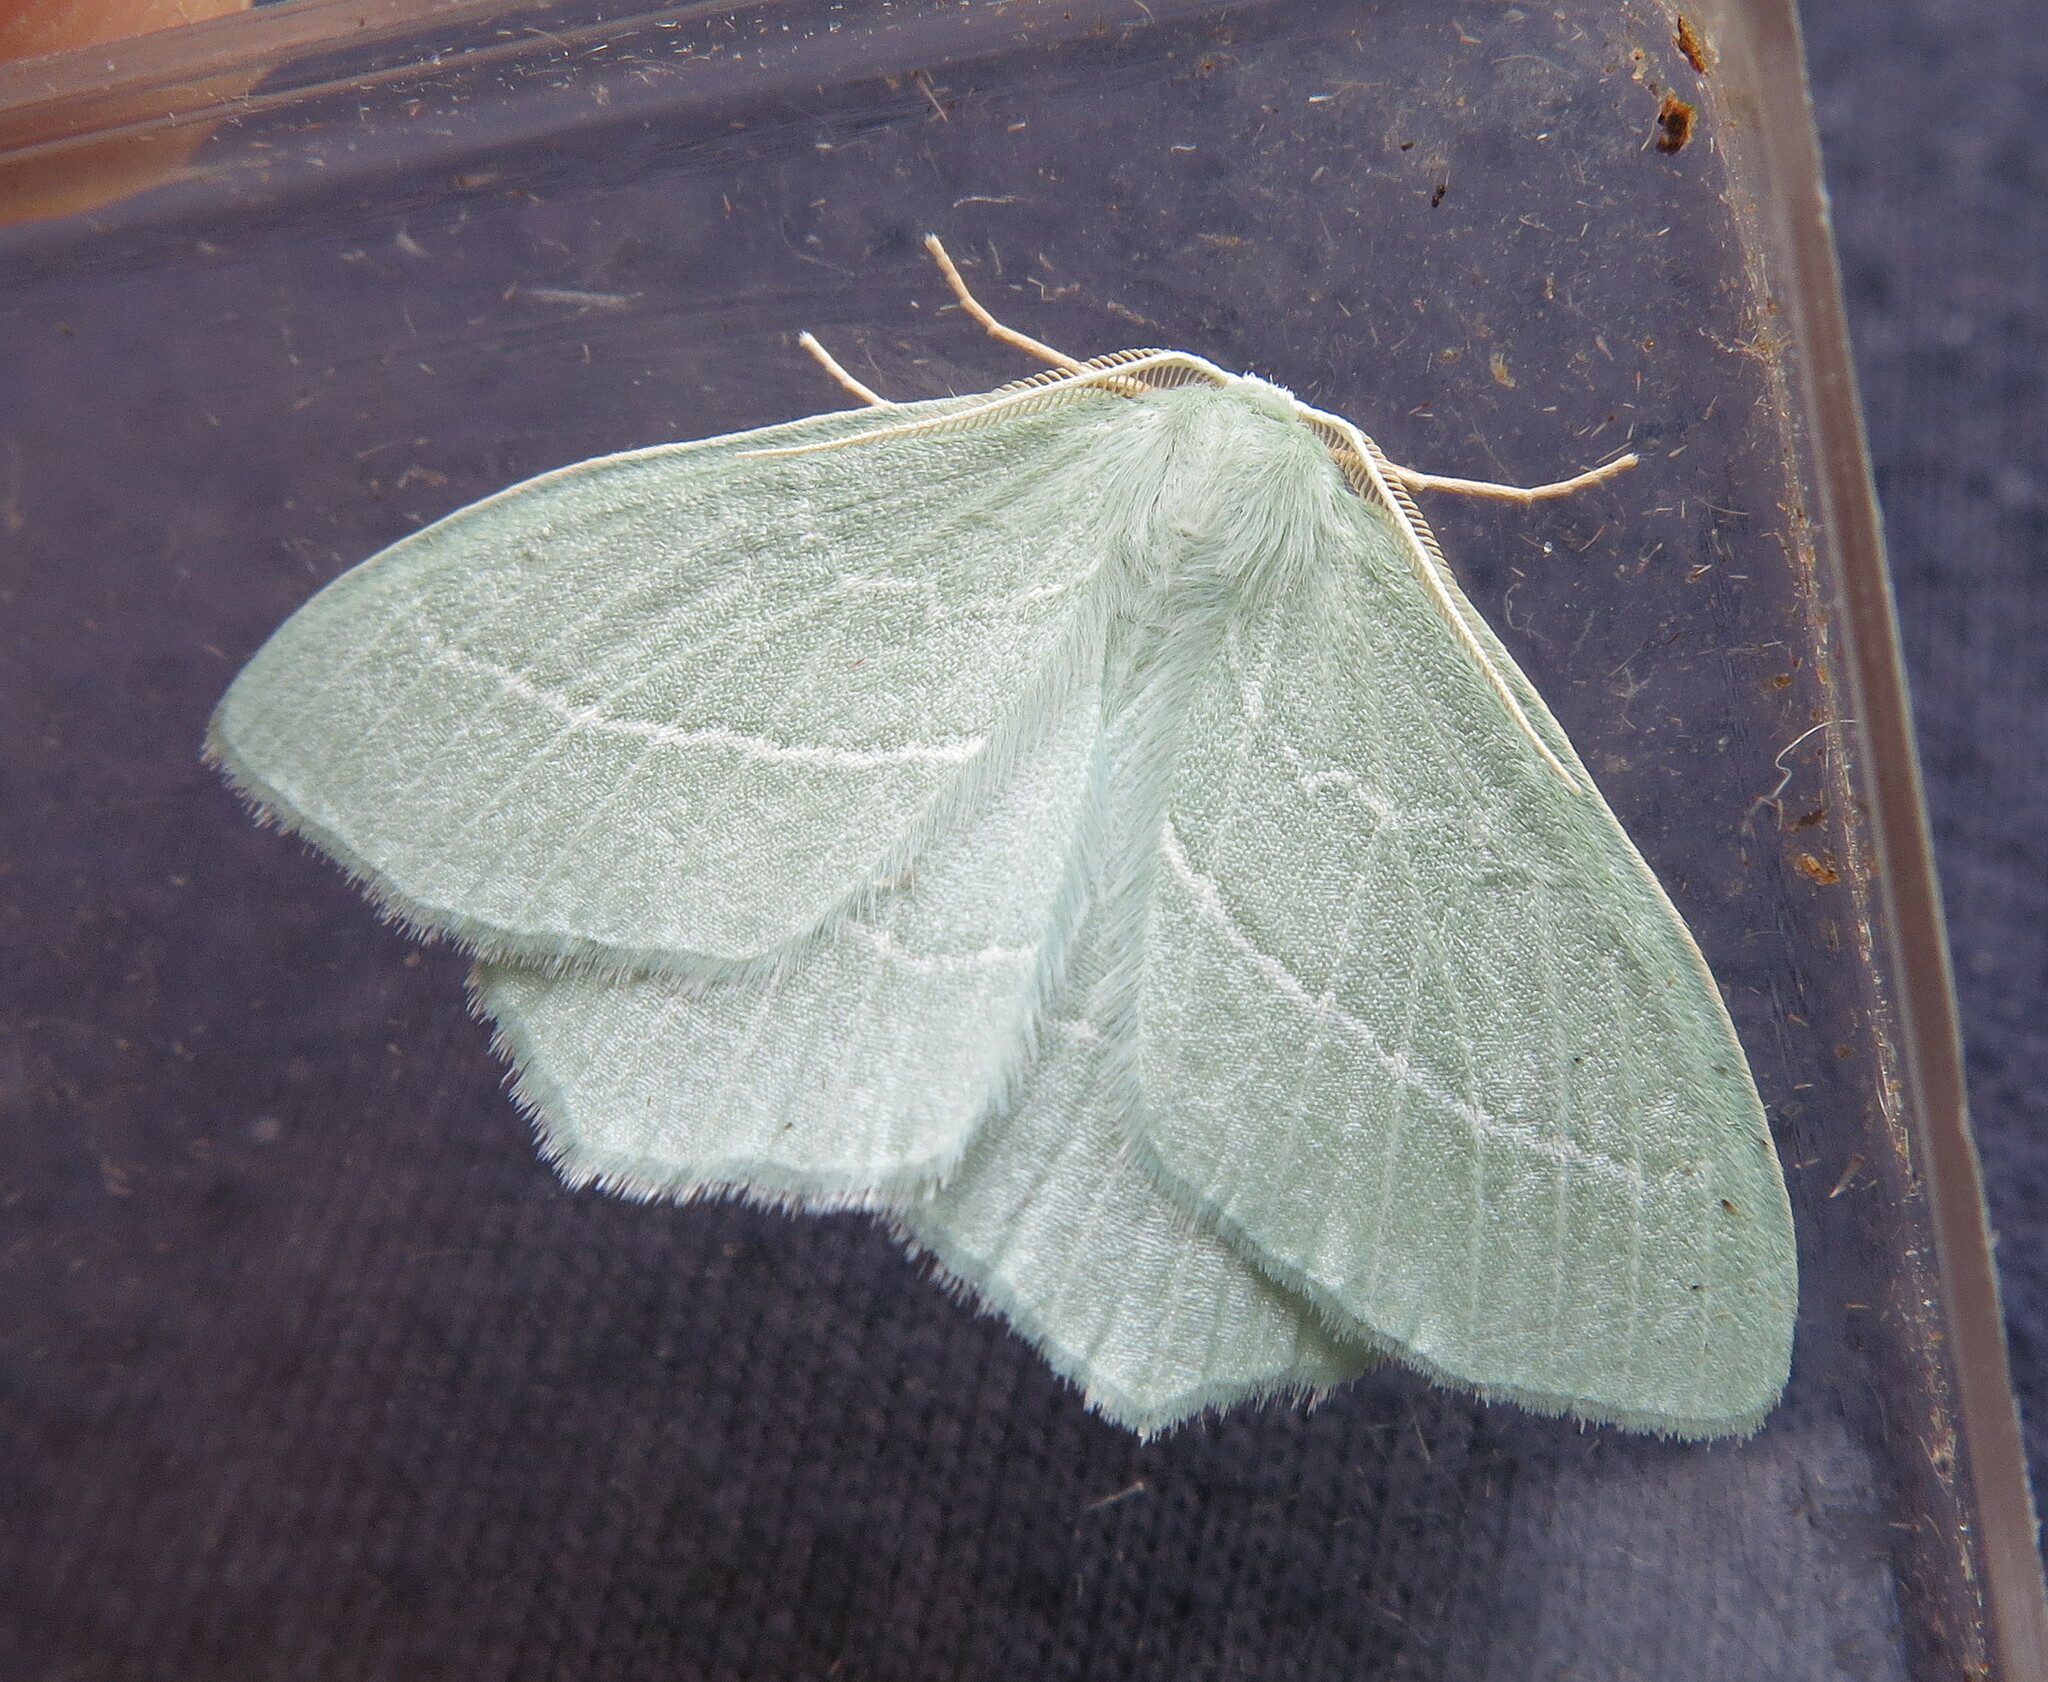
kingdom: Animalia
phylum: Arthropoda
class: Insecta
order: Lepidoptera
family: Geometridae
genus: Hemistola
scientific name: Hemistola chrysoprasaria
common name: Small emerald
